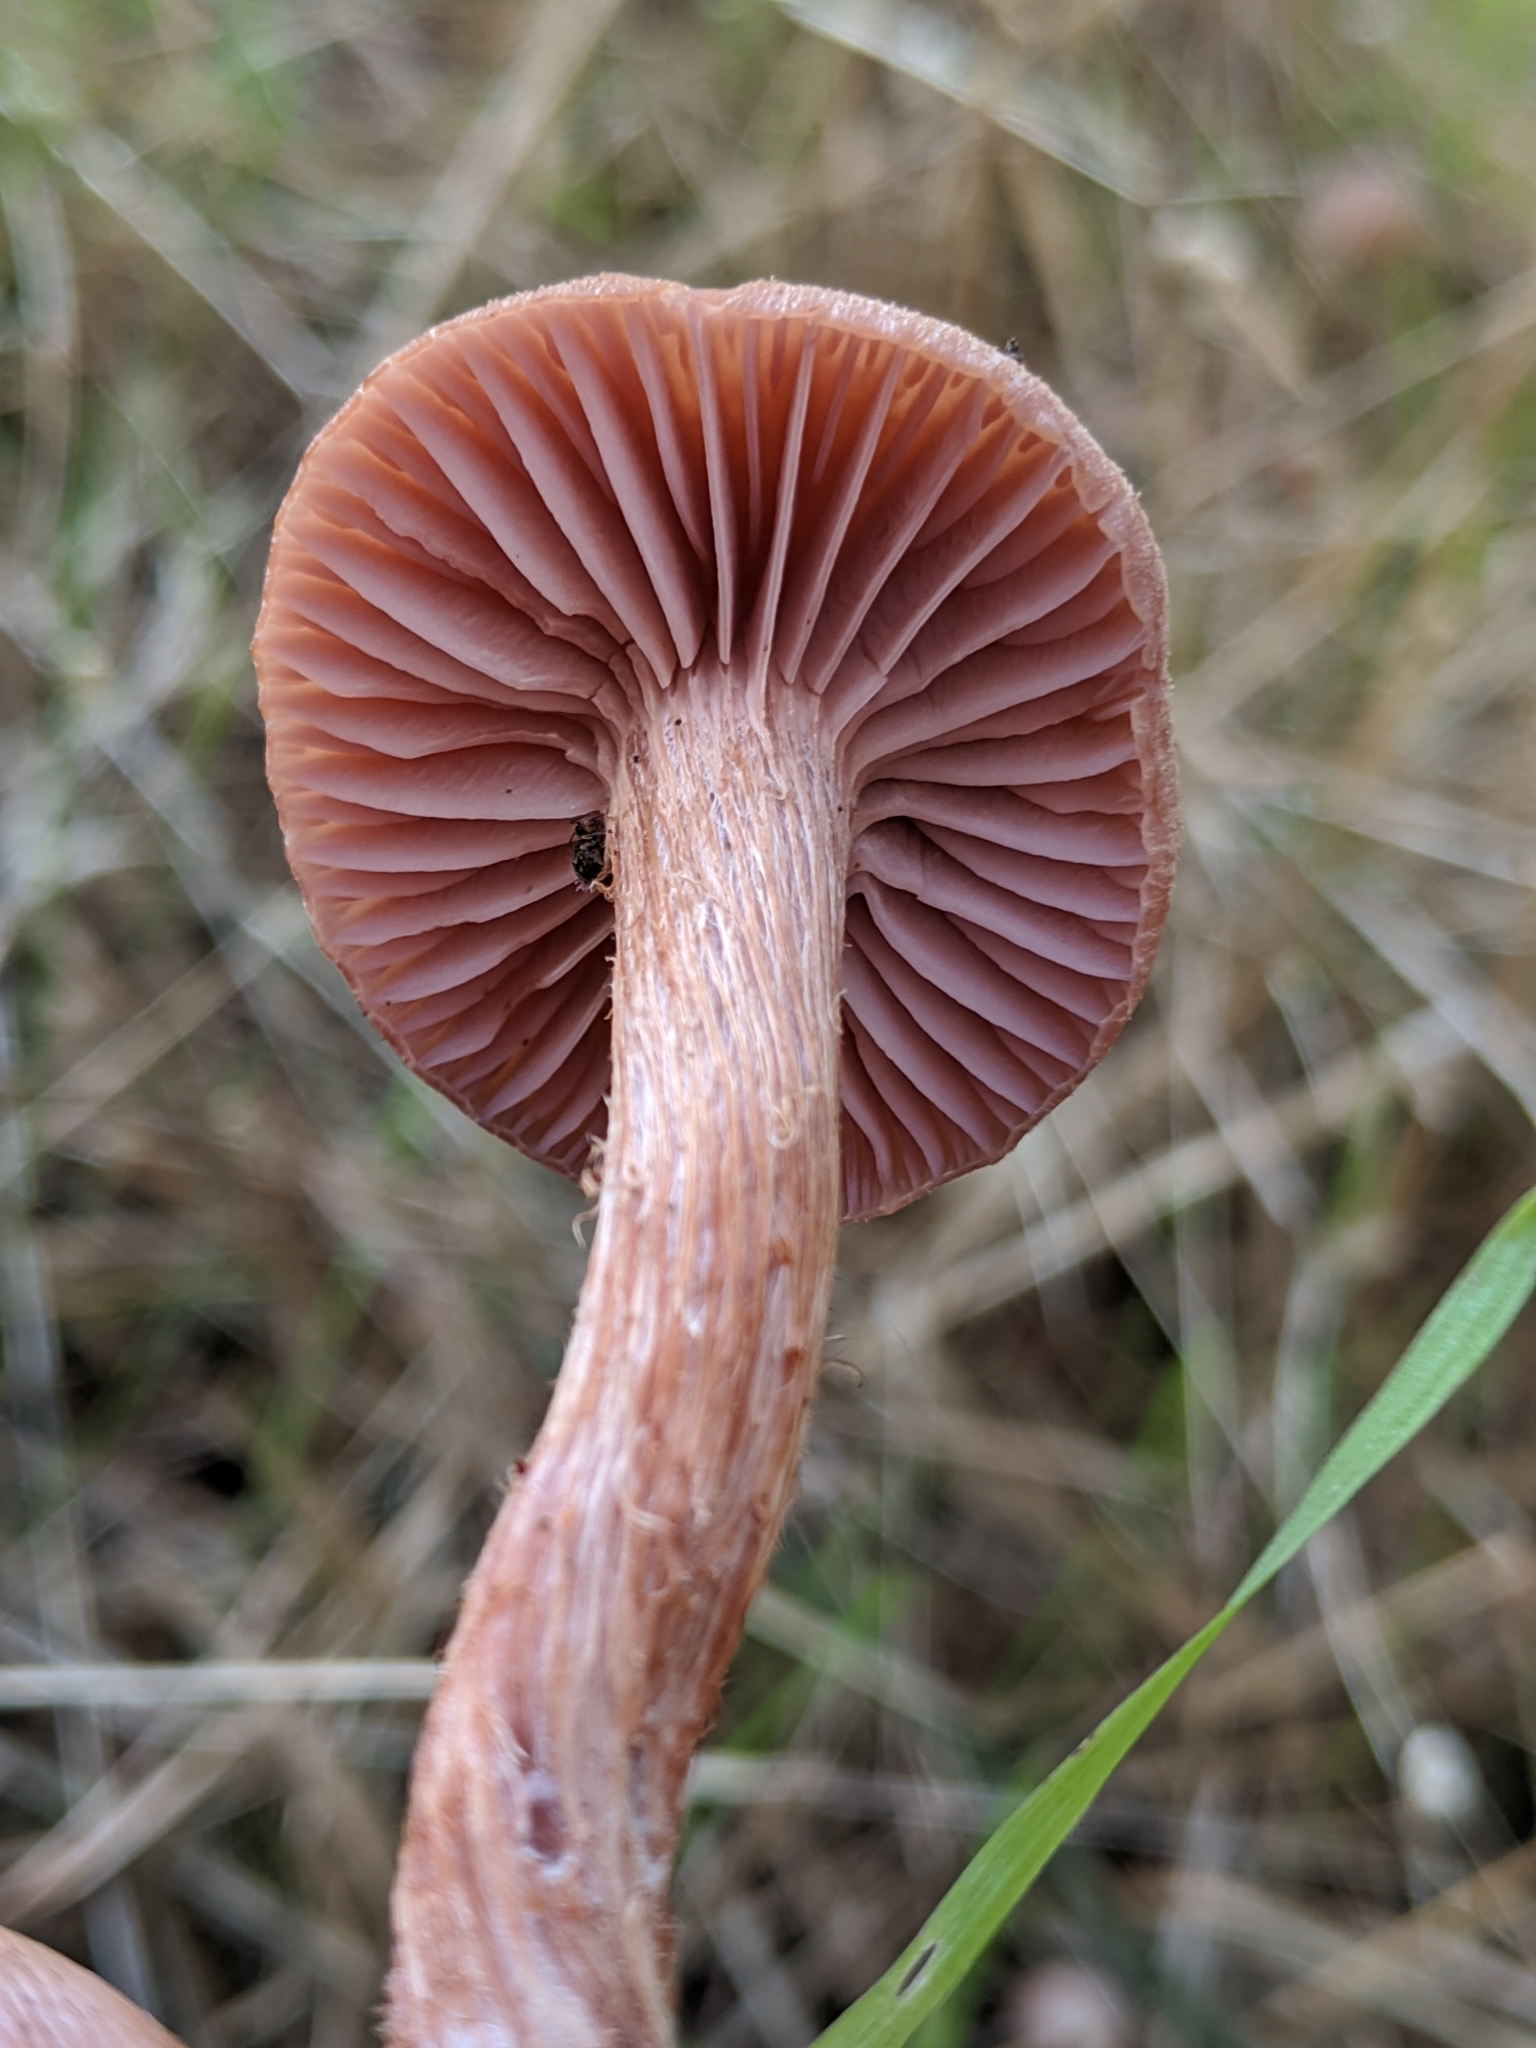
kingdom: Fungi
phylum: Basidiomycota
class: Agaricomycetes
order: Agaricales
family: Hydnangiaceae
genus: Laccaria
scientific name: Laccaria amethysteo-occidentalis
